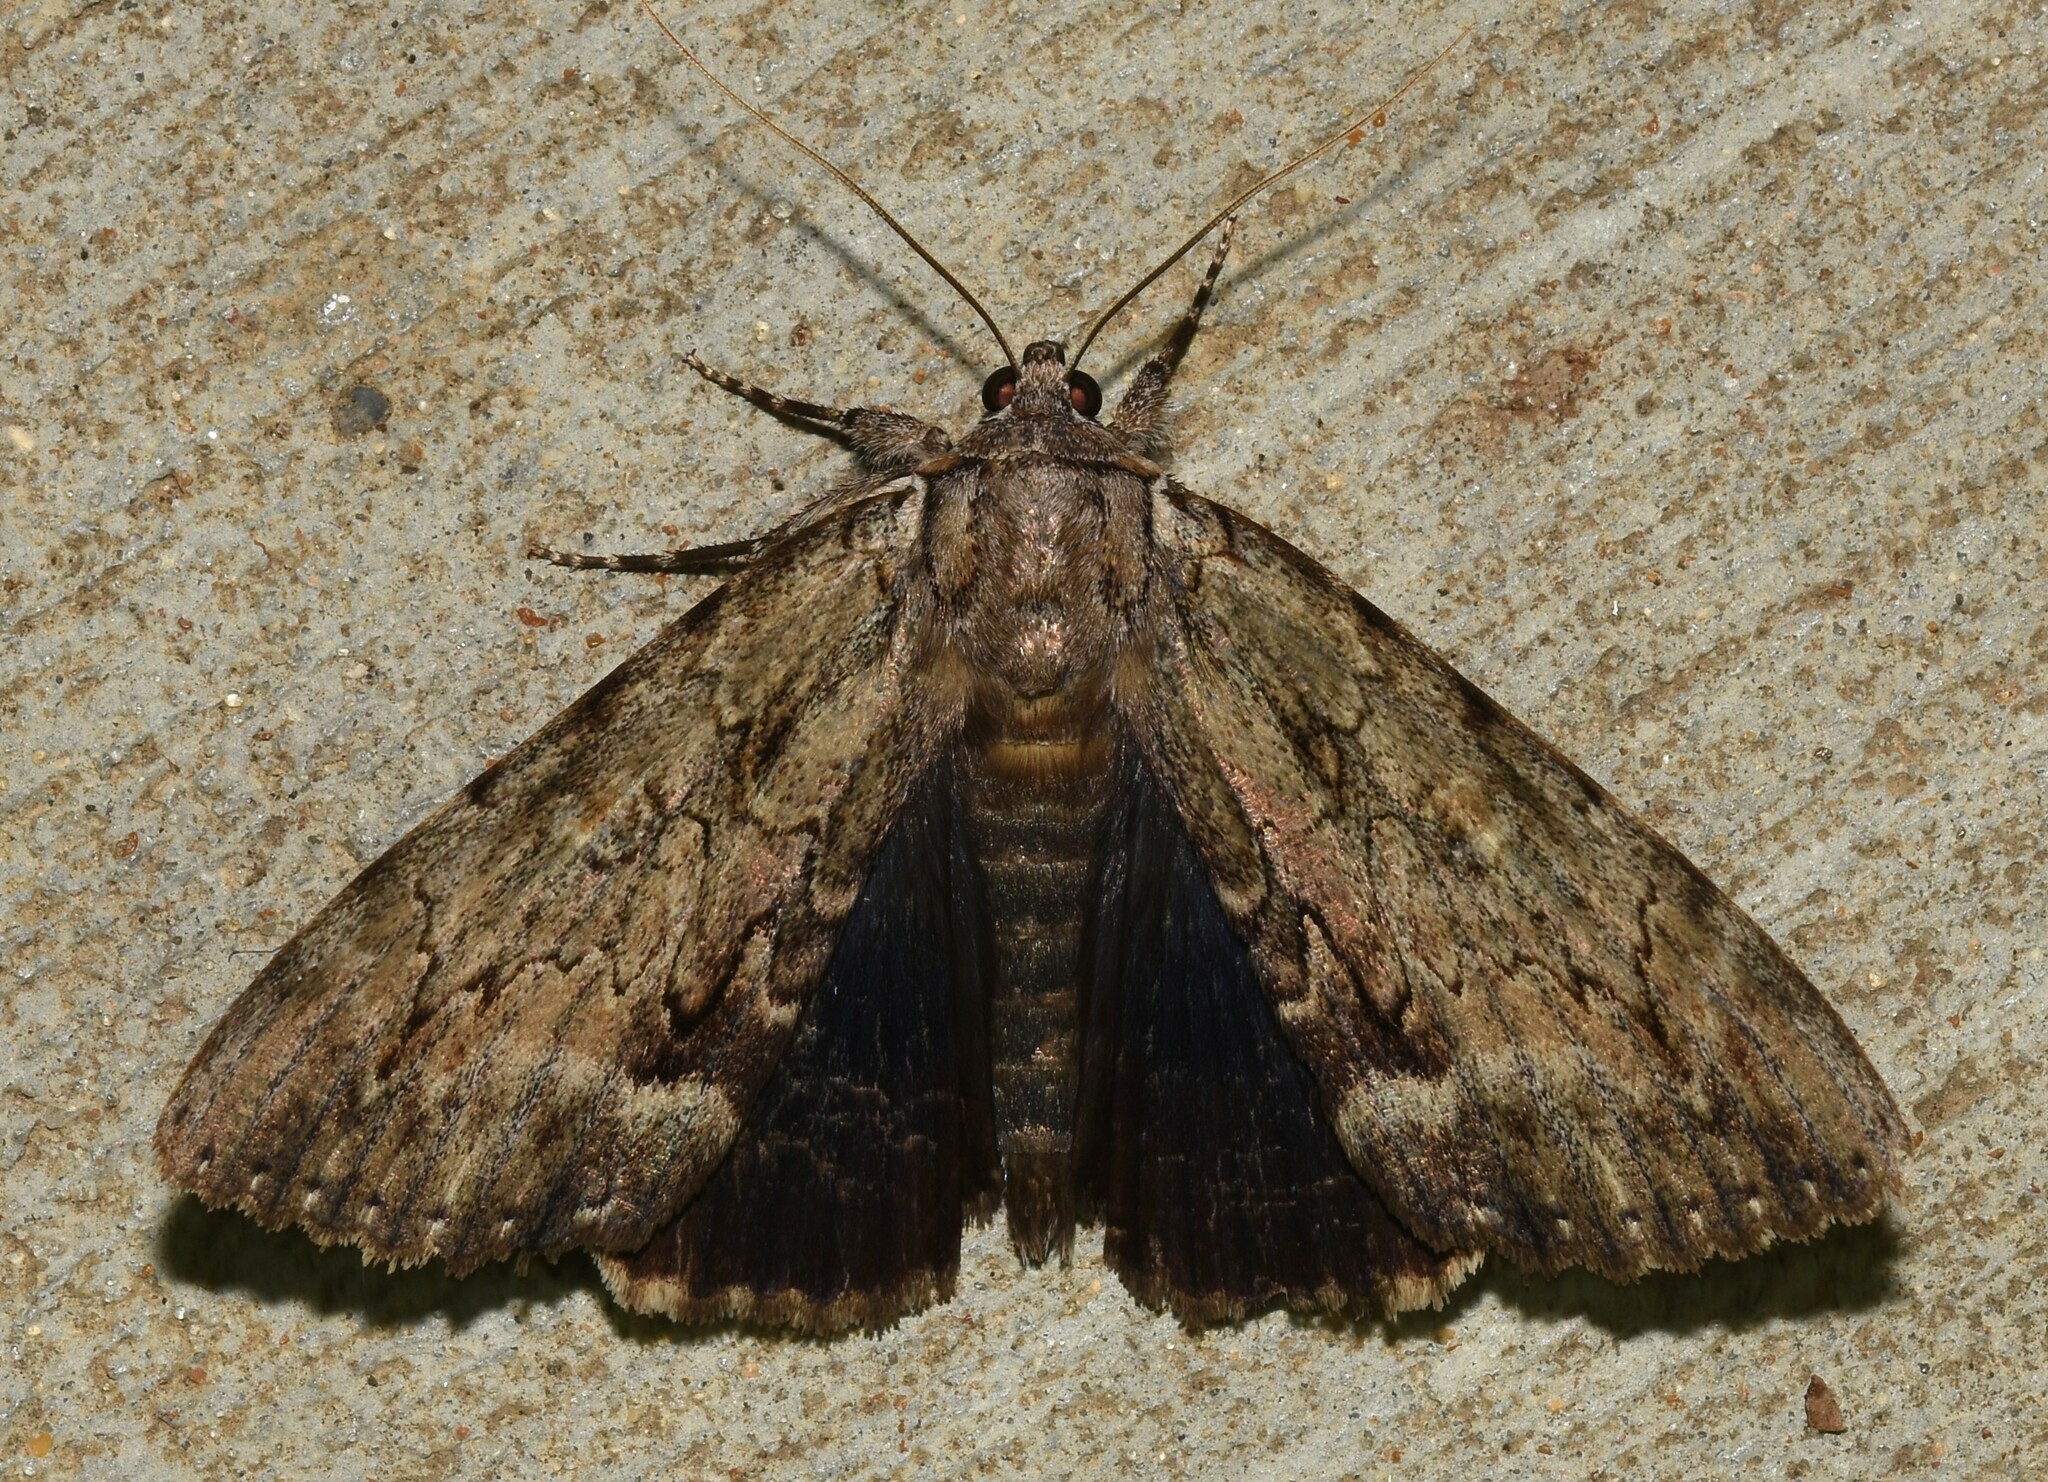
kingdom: Animalia
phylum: Arthropoda
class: Insecta
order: Lepidoptera
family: Erebidae
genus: Catocala
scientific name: Catocala angusi
